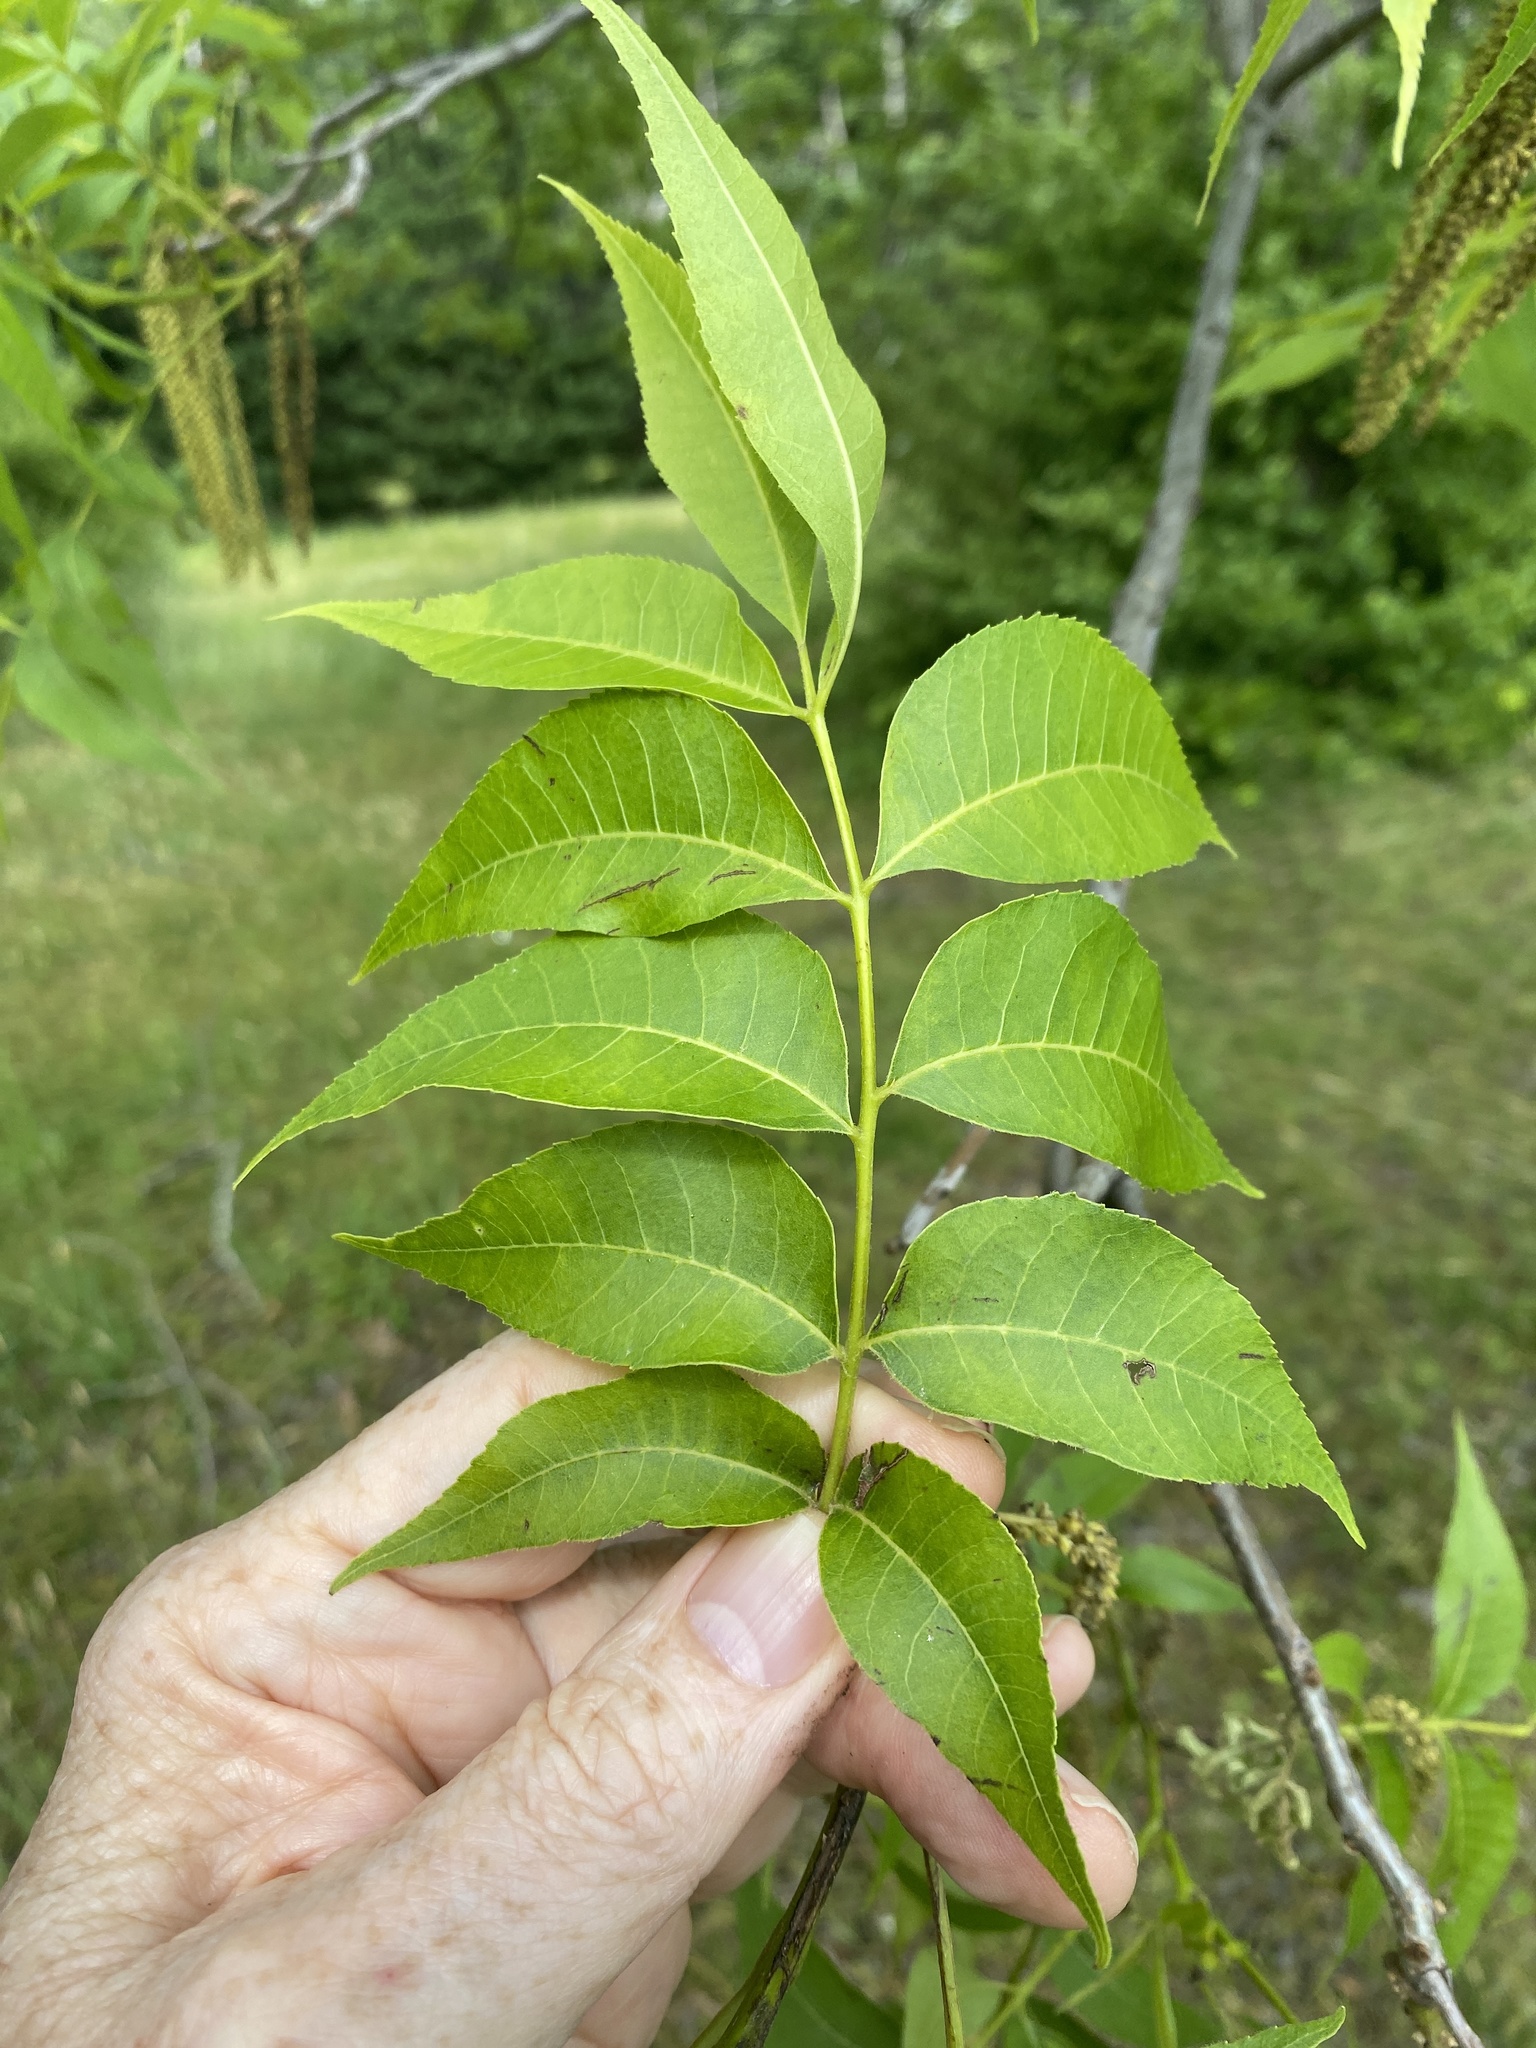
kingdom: Plantae
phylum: Tracheophyta
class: Magnoliopsida
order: Fagales
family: Juglandaceae
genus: Carya
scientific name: Carya illinoinensis
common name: Pecan
